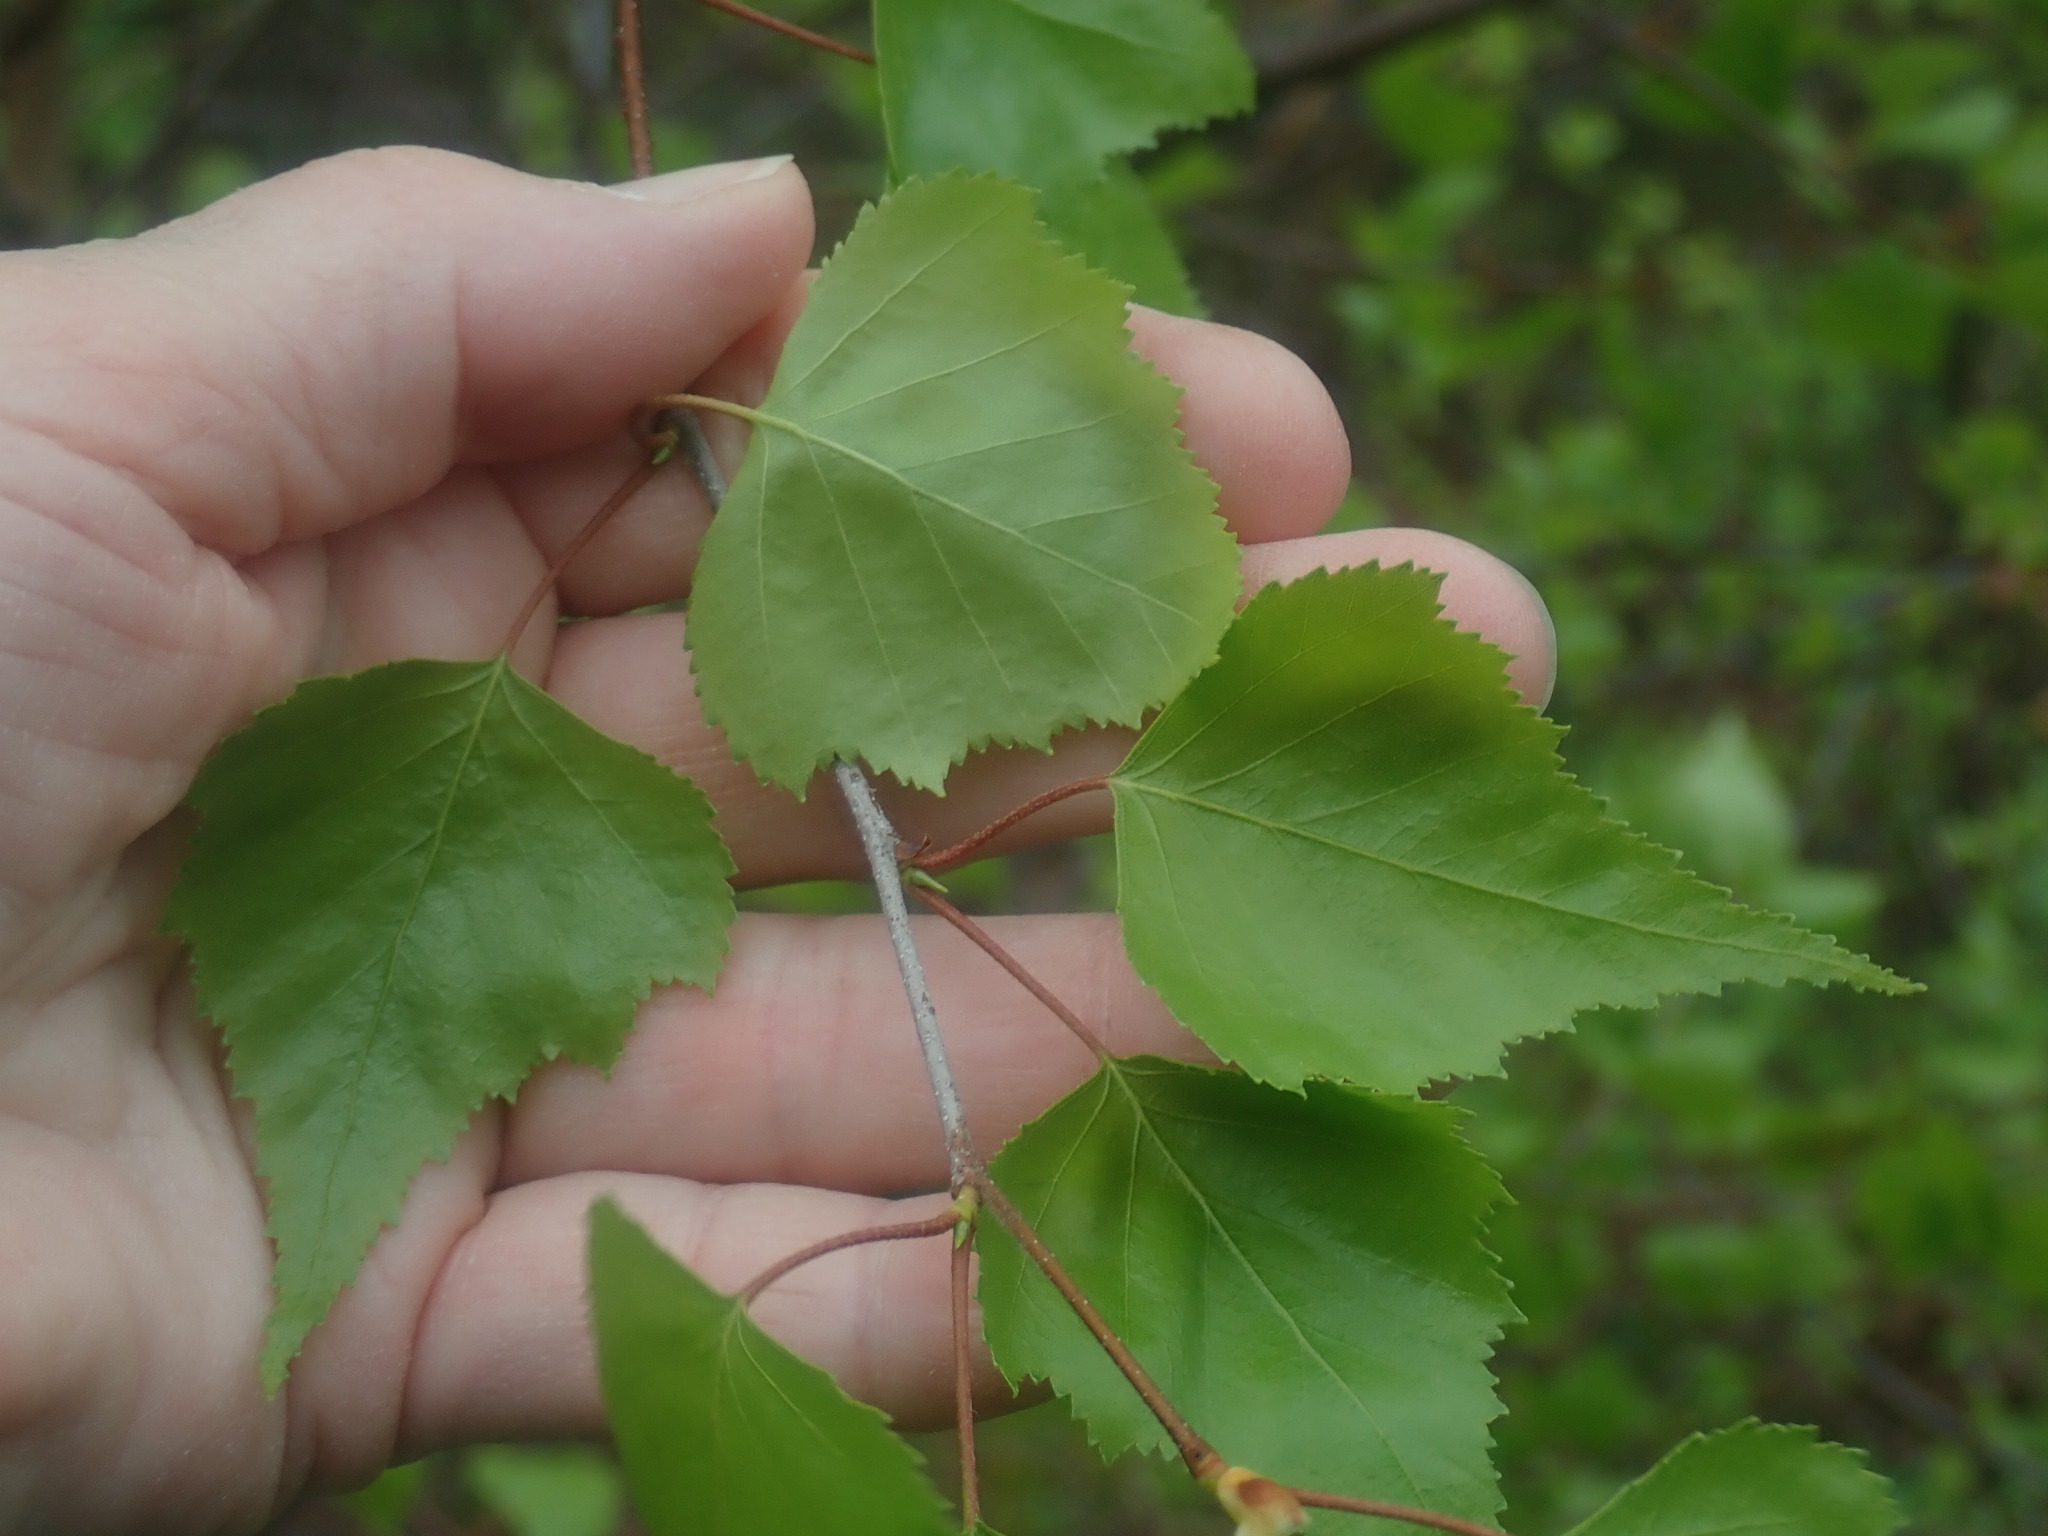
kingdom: Plantae
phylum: Tracheophyta
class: Magnoliopsida
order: Fagales
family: Betulaceae
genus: Betula
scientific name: Betula populifolia
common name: Fire birch
